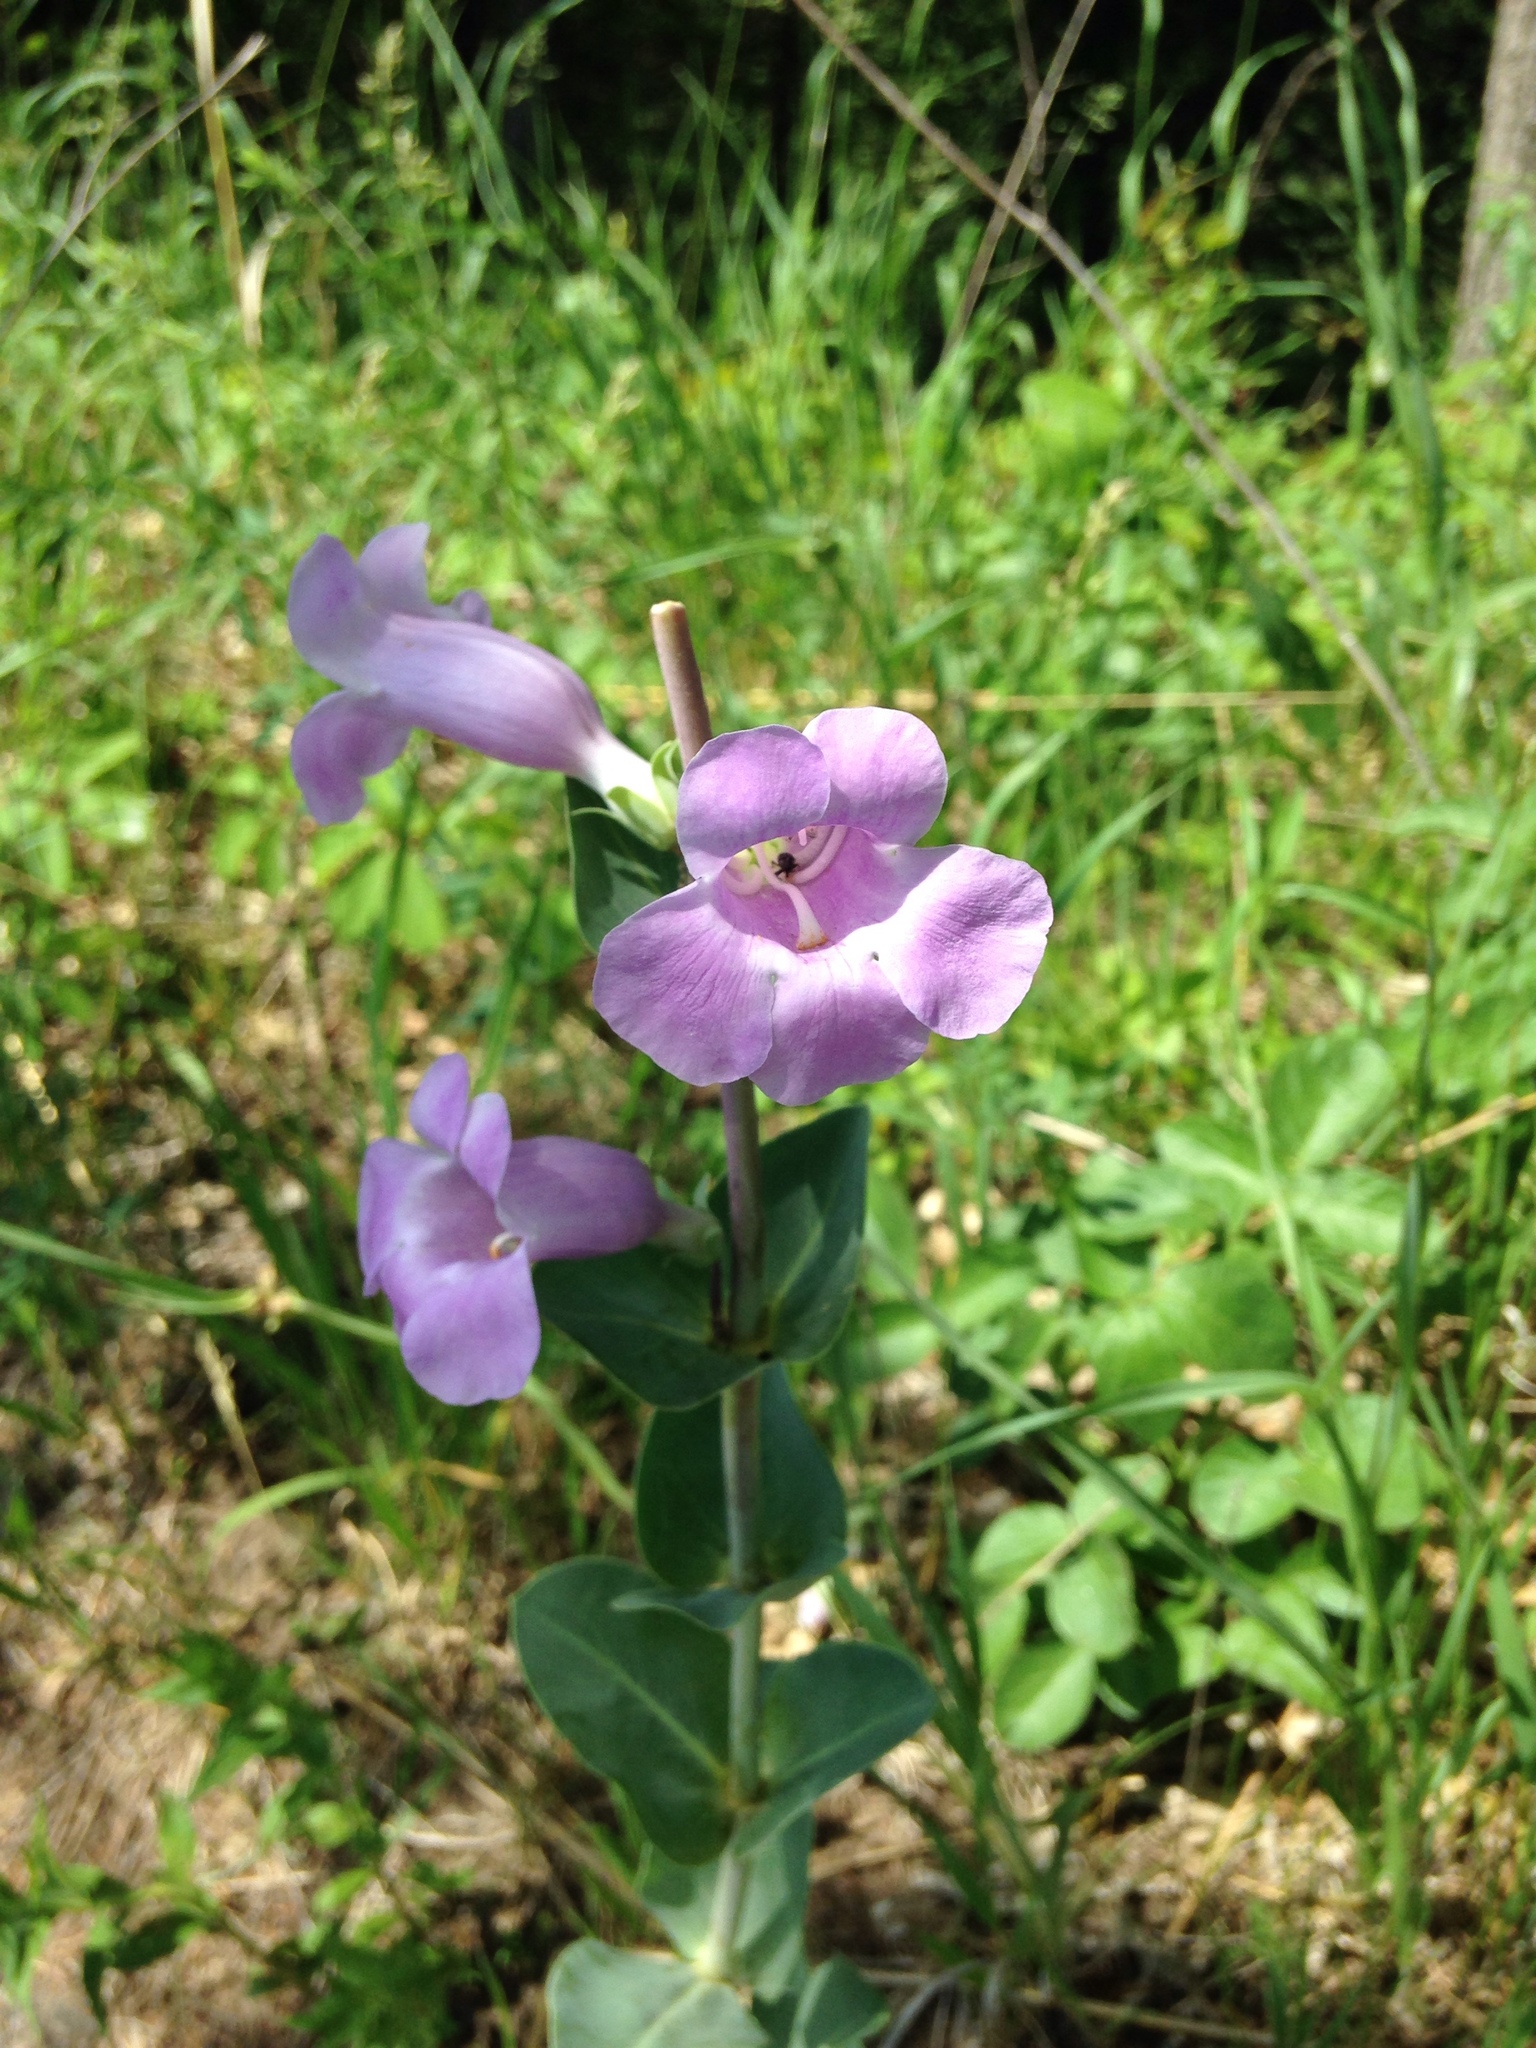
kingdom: Plantae
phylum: Tracheophyta
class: Magnoliopsida
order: Lamiales
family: Plantaginaceae
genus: Penstemon
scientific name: Penstemon
